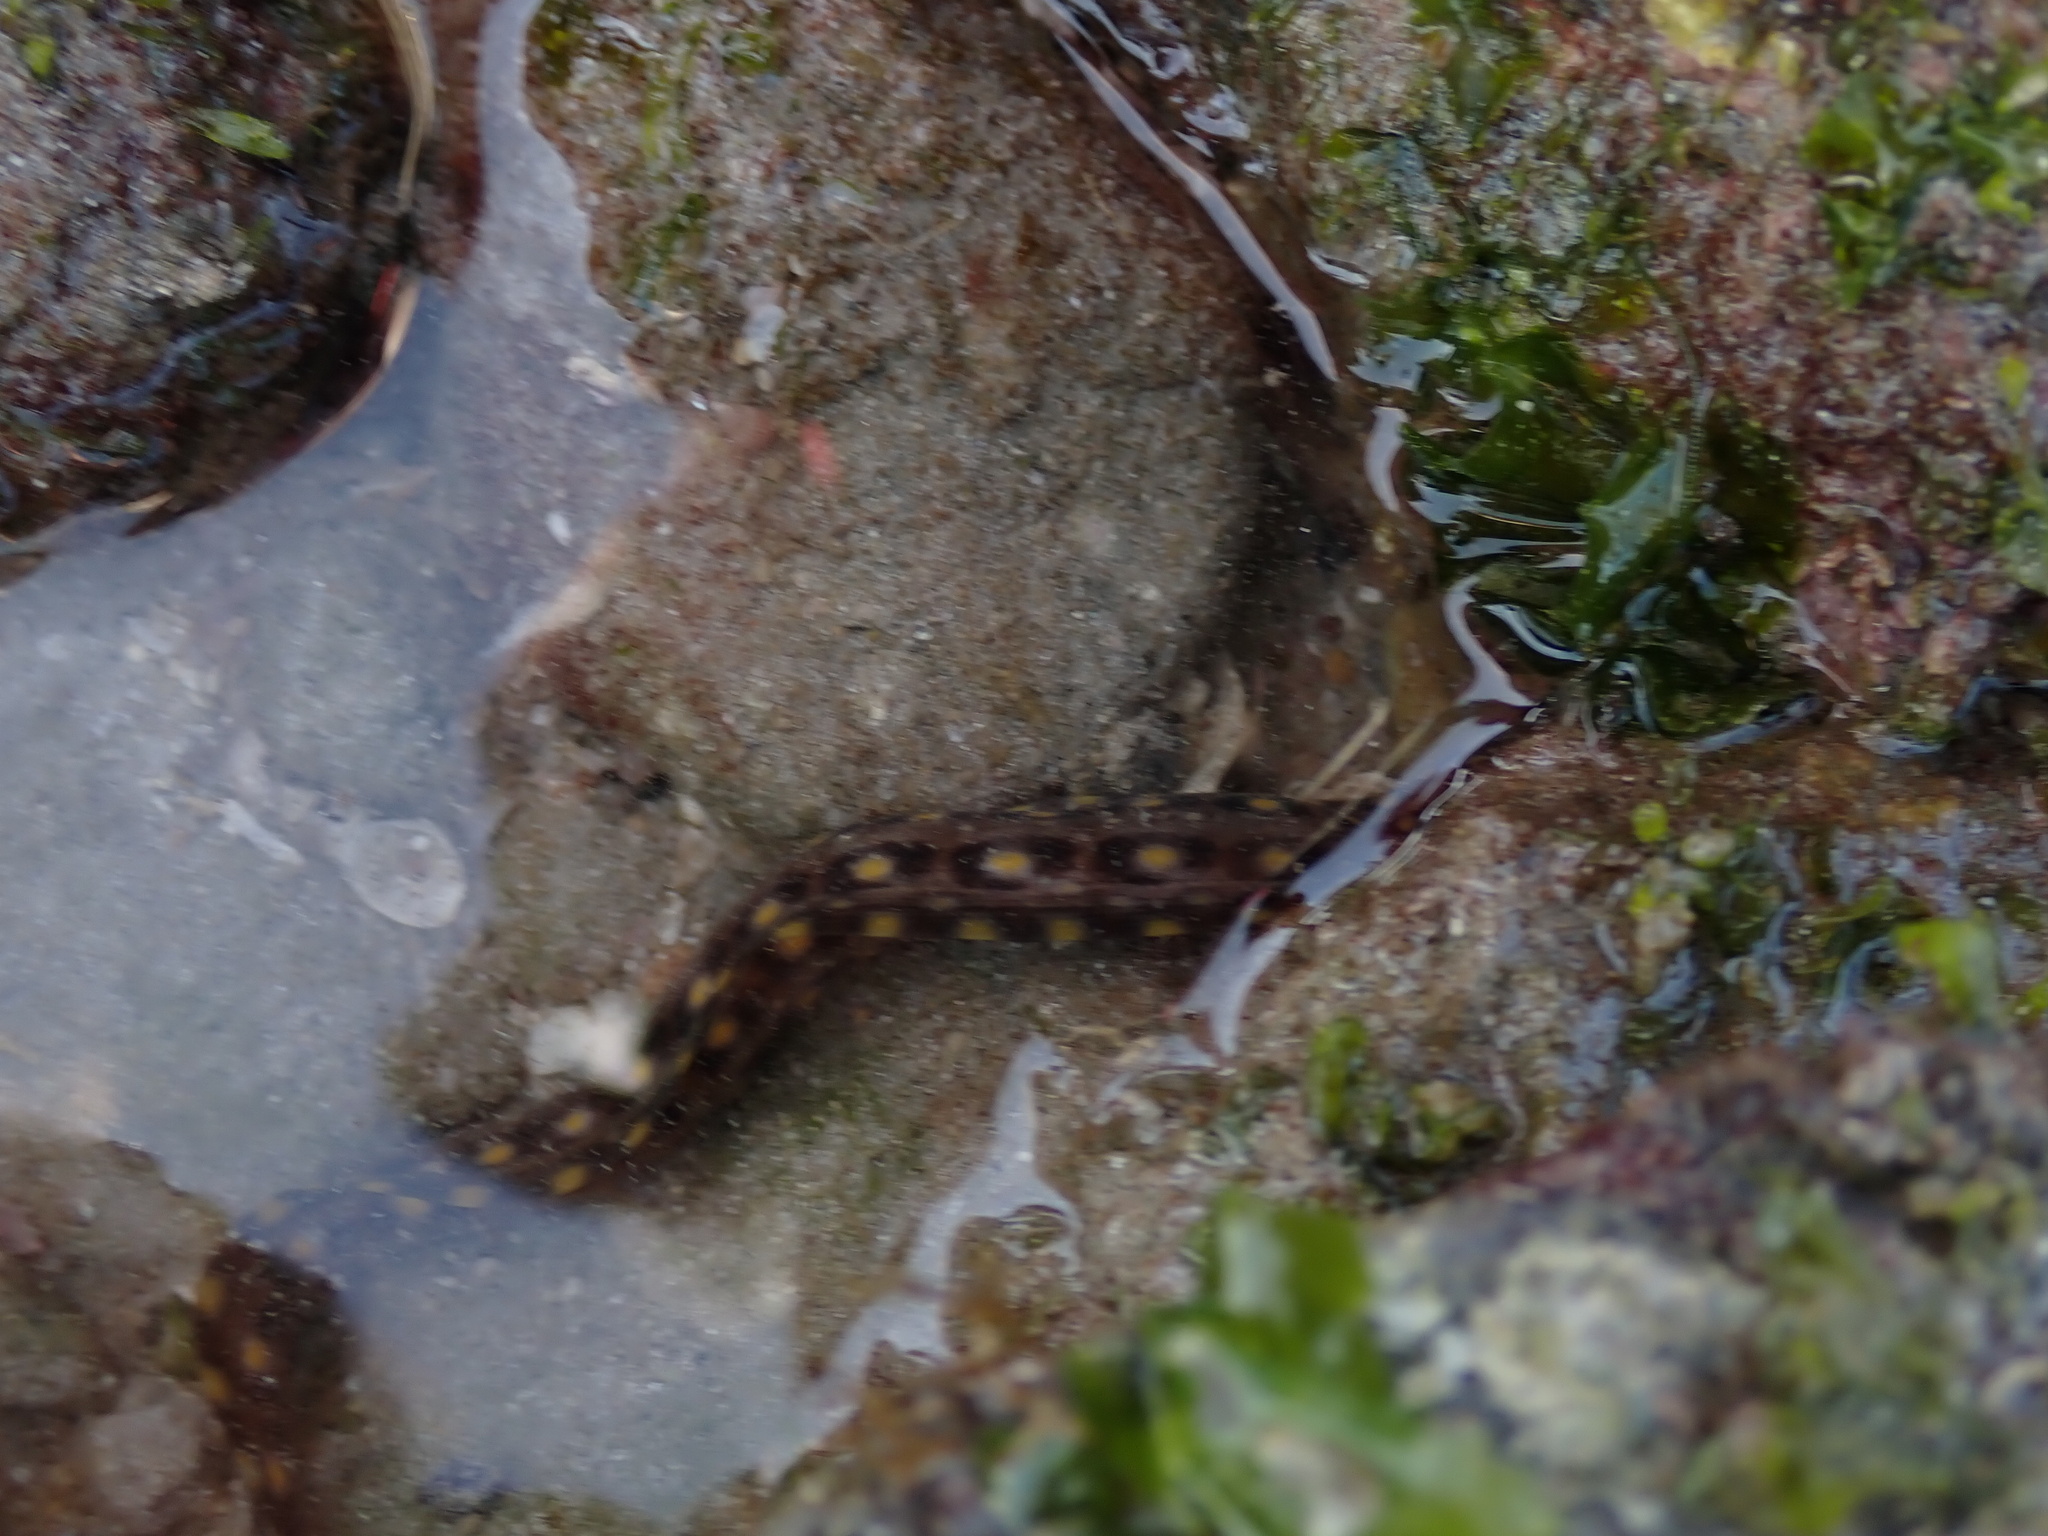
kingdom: Animalia
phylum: Chordata
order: Anguilliformes
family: Muraenidae
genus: Muraena
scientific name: Muraena lentiginosa
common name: Jewel moray
